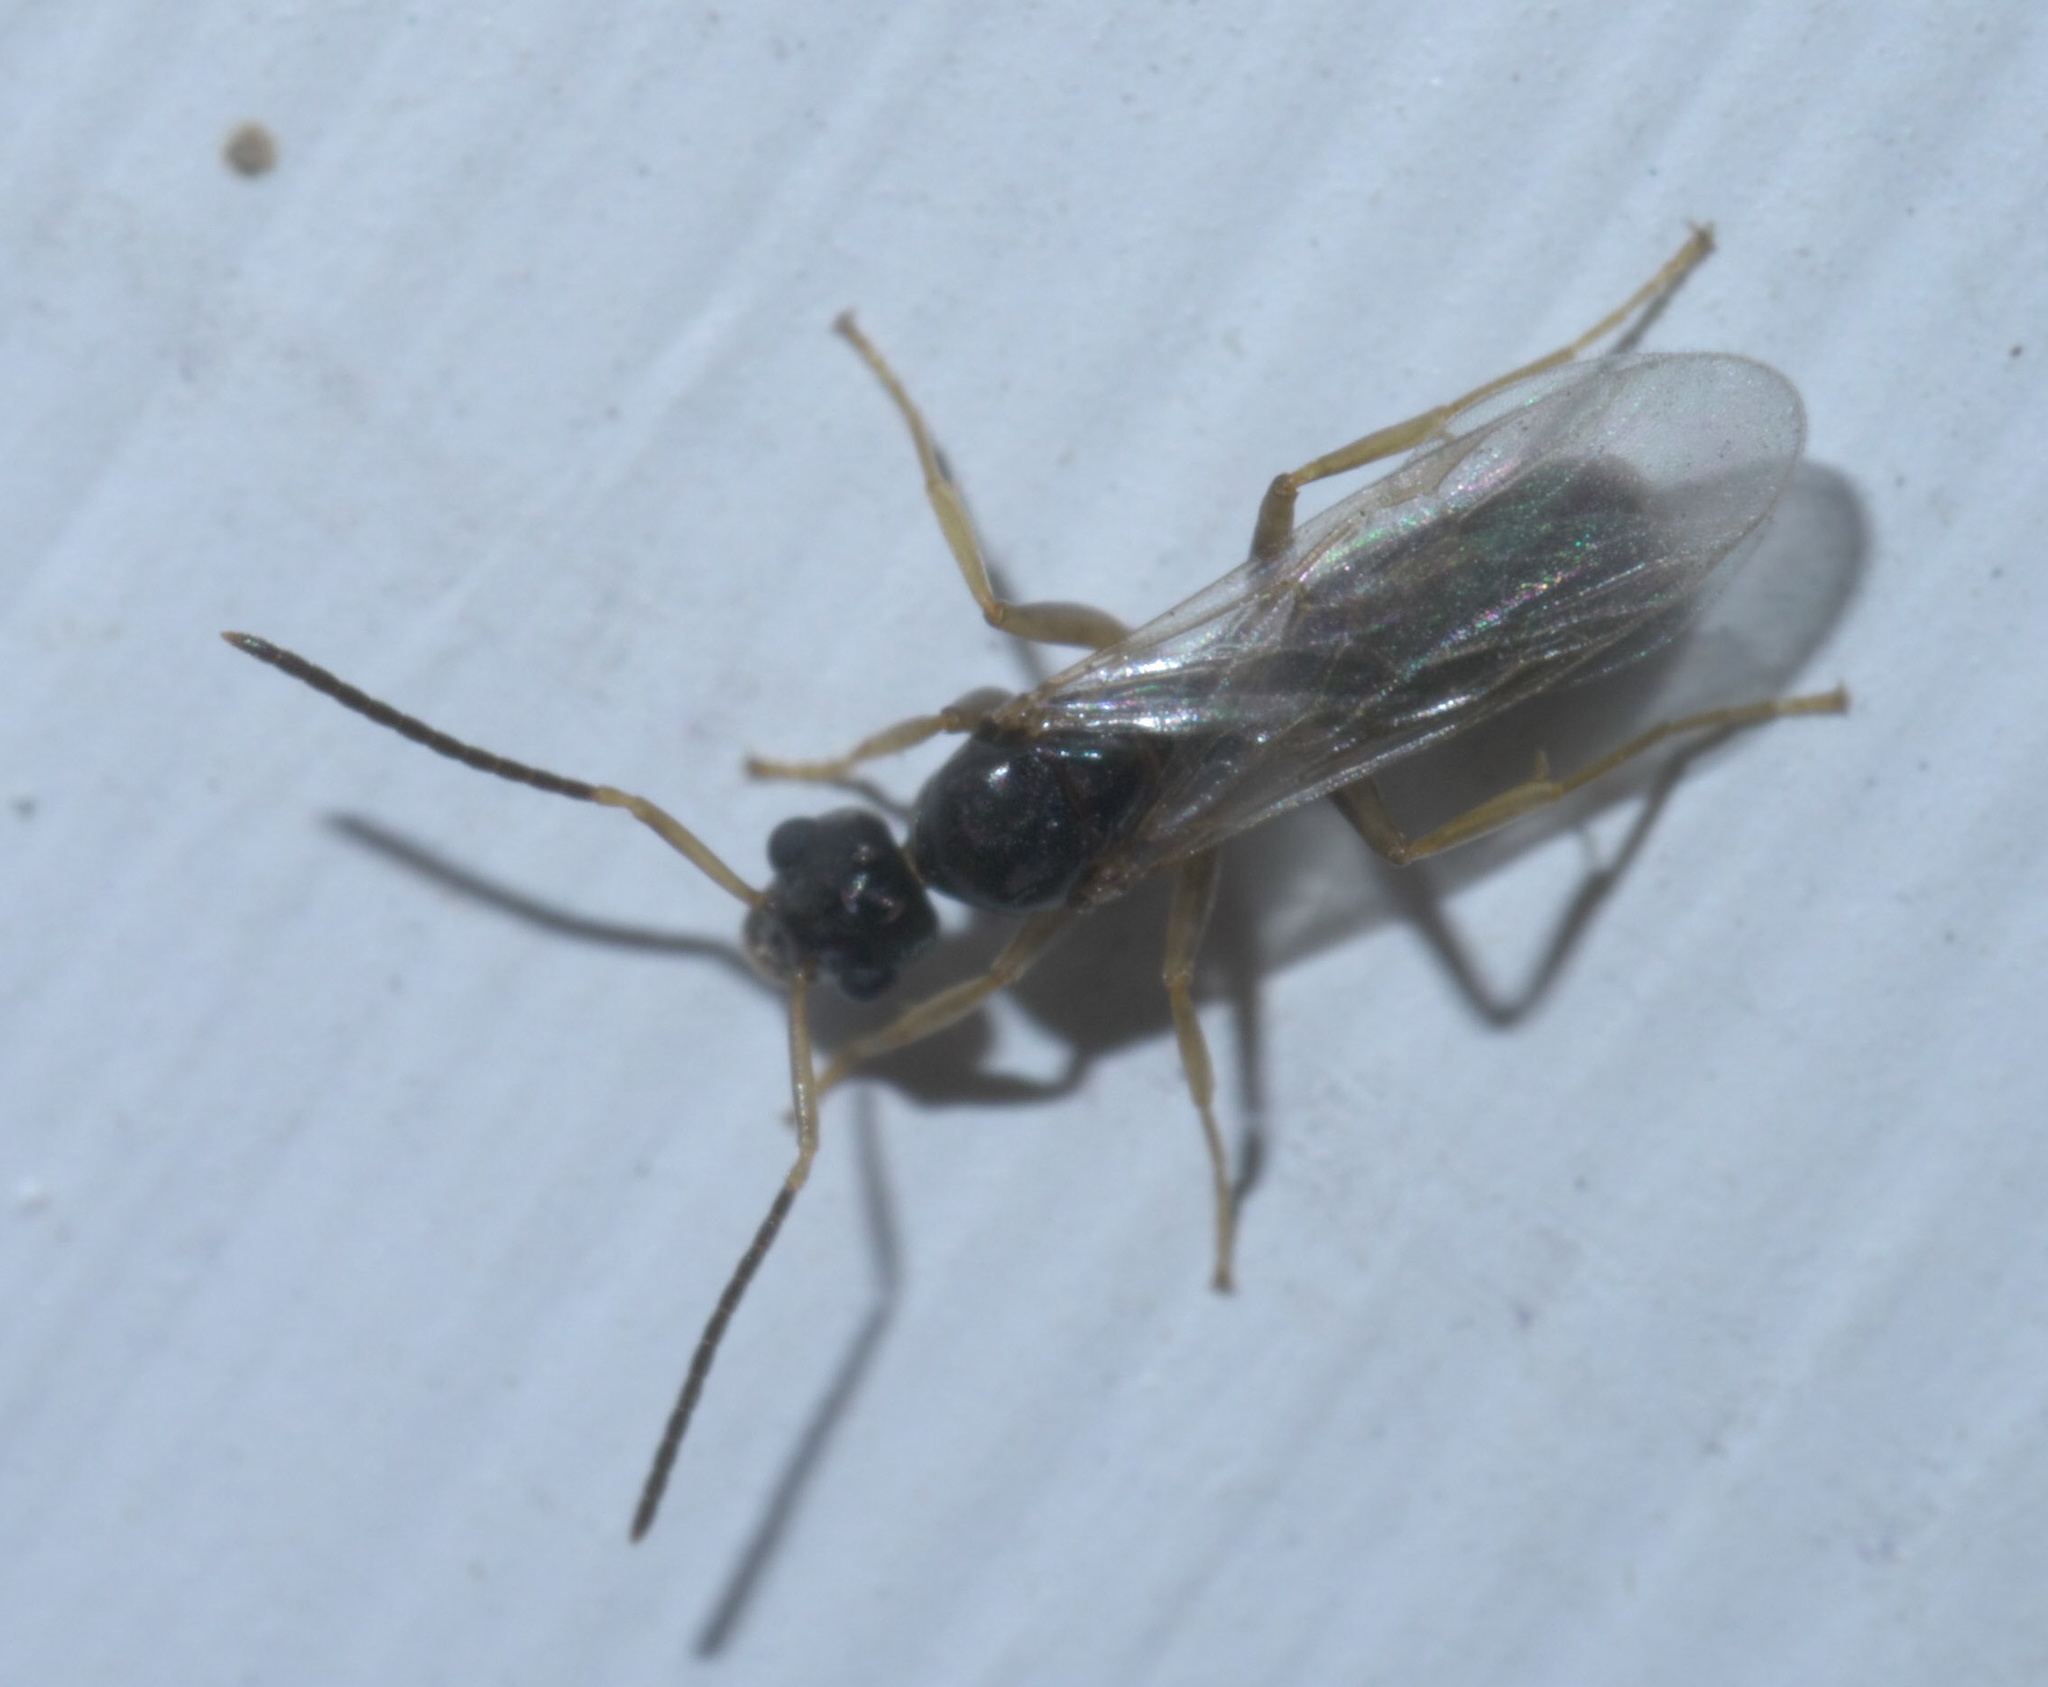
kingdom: Animalia
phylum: Arthropoda
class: Insecta
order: Hymenoptera
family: Formicidae
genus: Tapinoma
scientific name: Tapinoma sessile
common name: Odorous house ant
